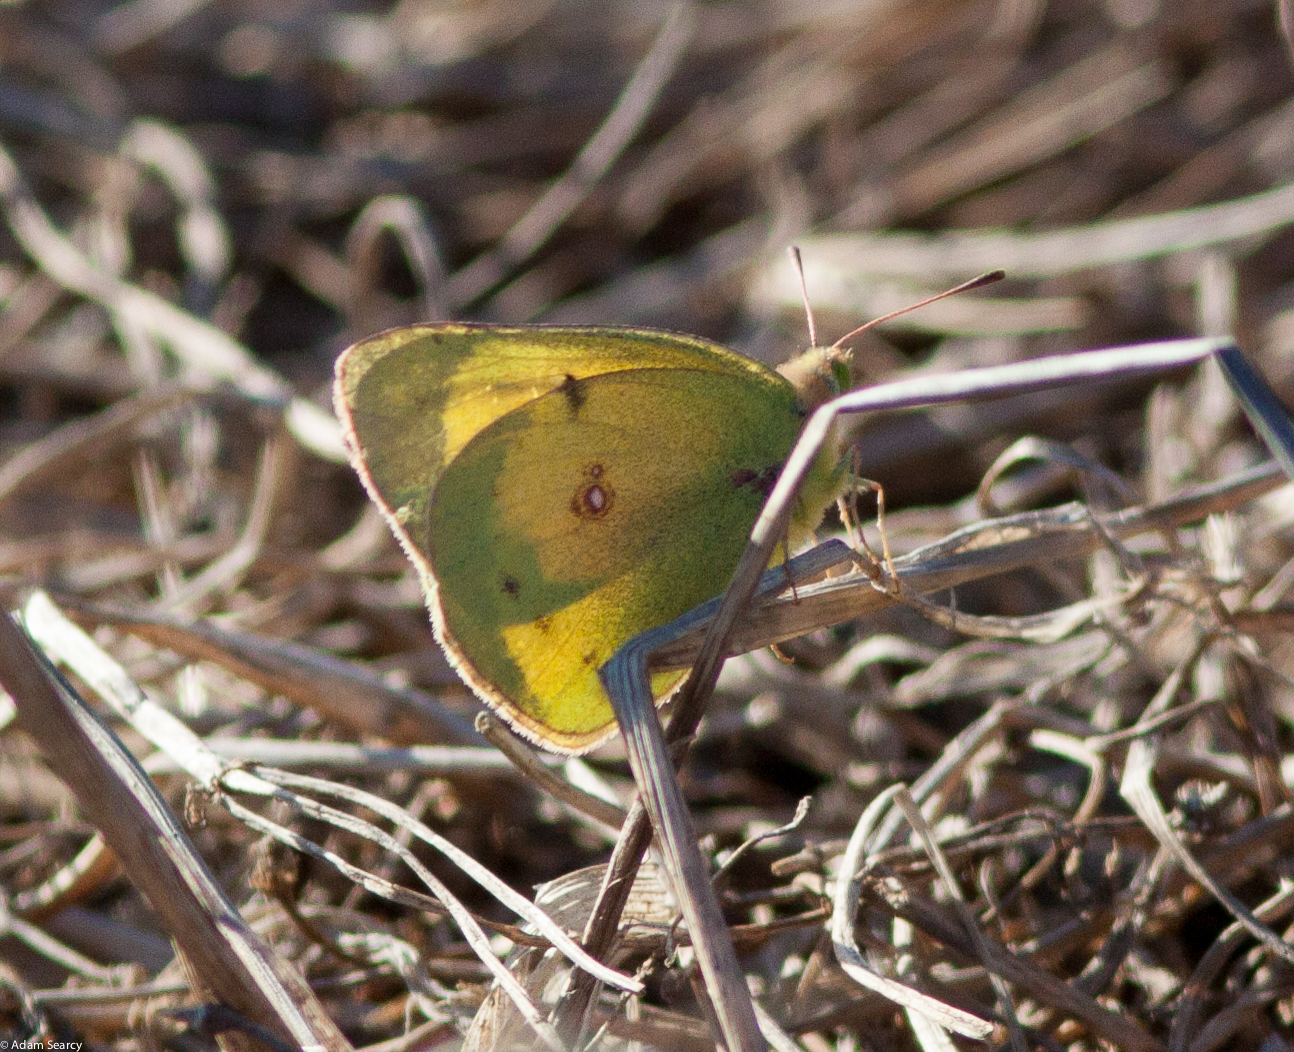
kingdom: Animalia
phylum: Arthropoda
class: Insecta
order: Lepidoptera
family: Pieridae
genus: Colias
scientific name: Colias eurytheme
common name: Alfalfa butterfly
